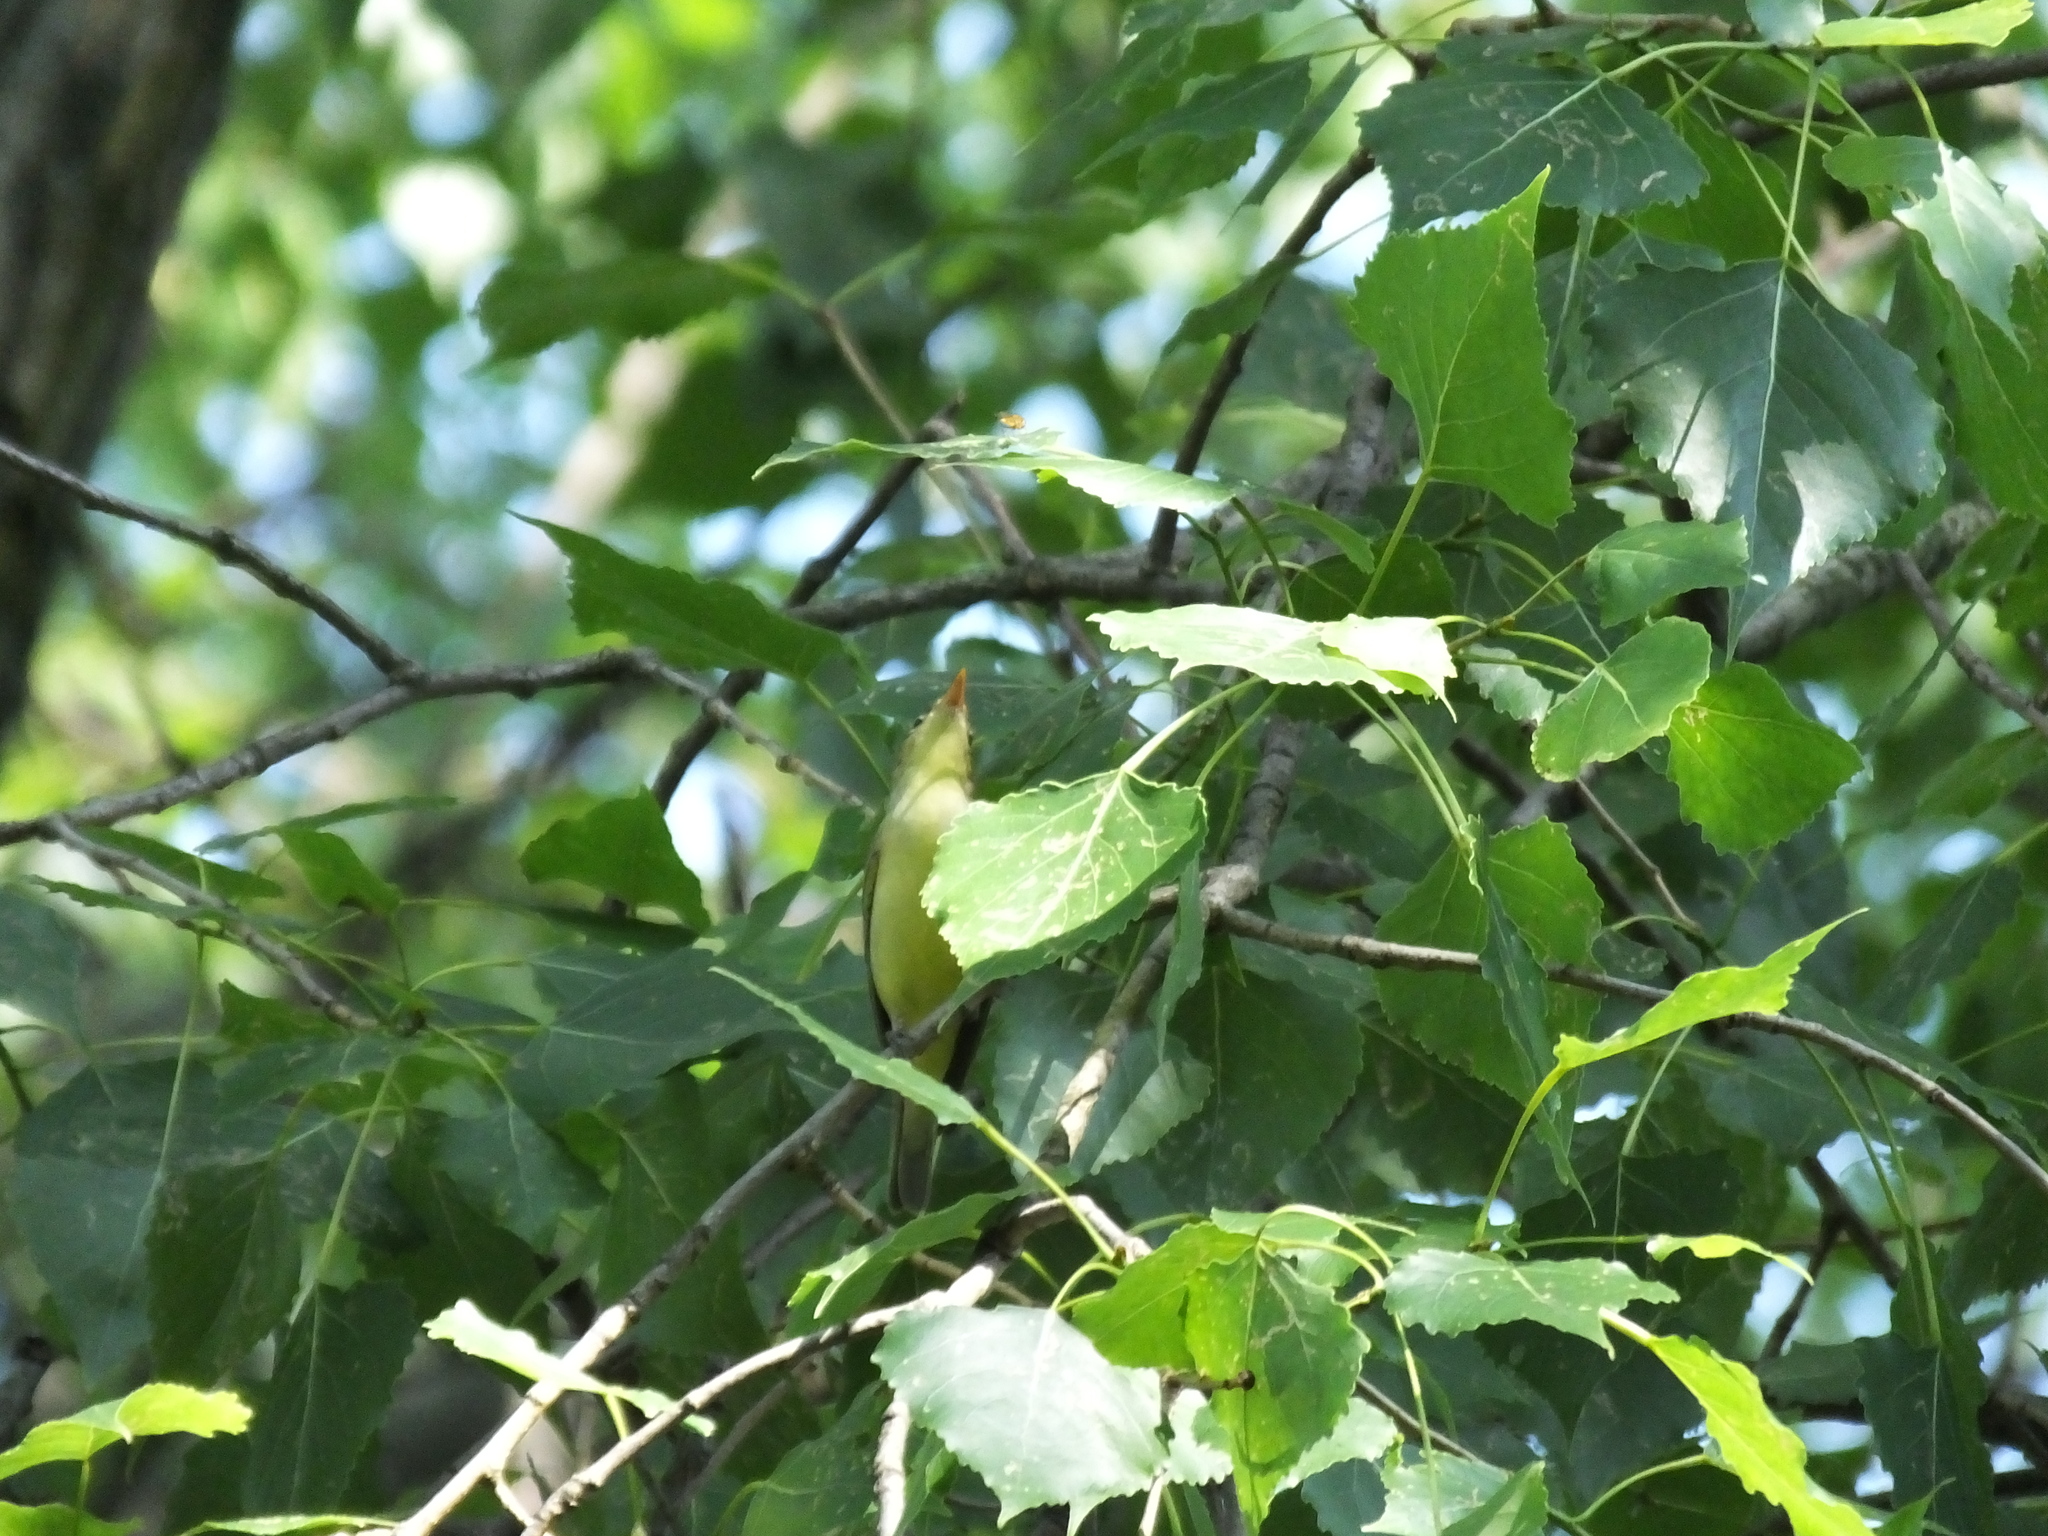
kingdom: Animalia
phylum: Chordata
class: Aves
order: Passeriformes
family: Acrocephalidae
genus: Hippolais
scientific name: Hippolais icterina
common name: Icterine warbler
